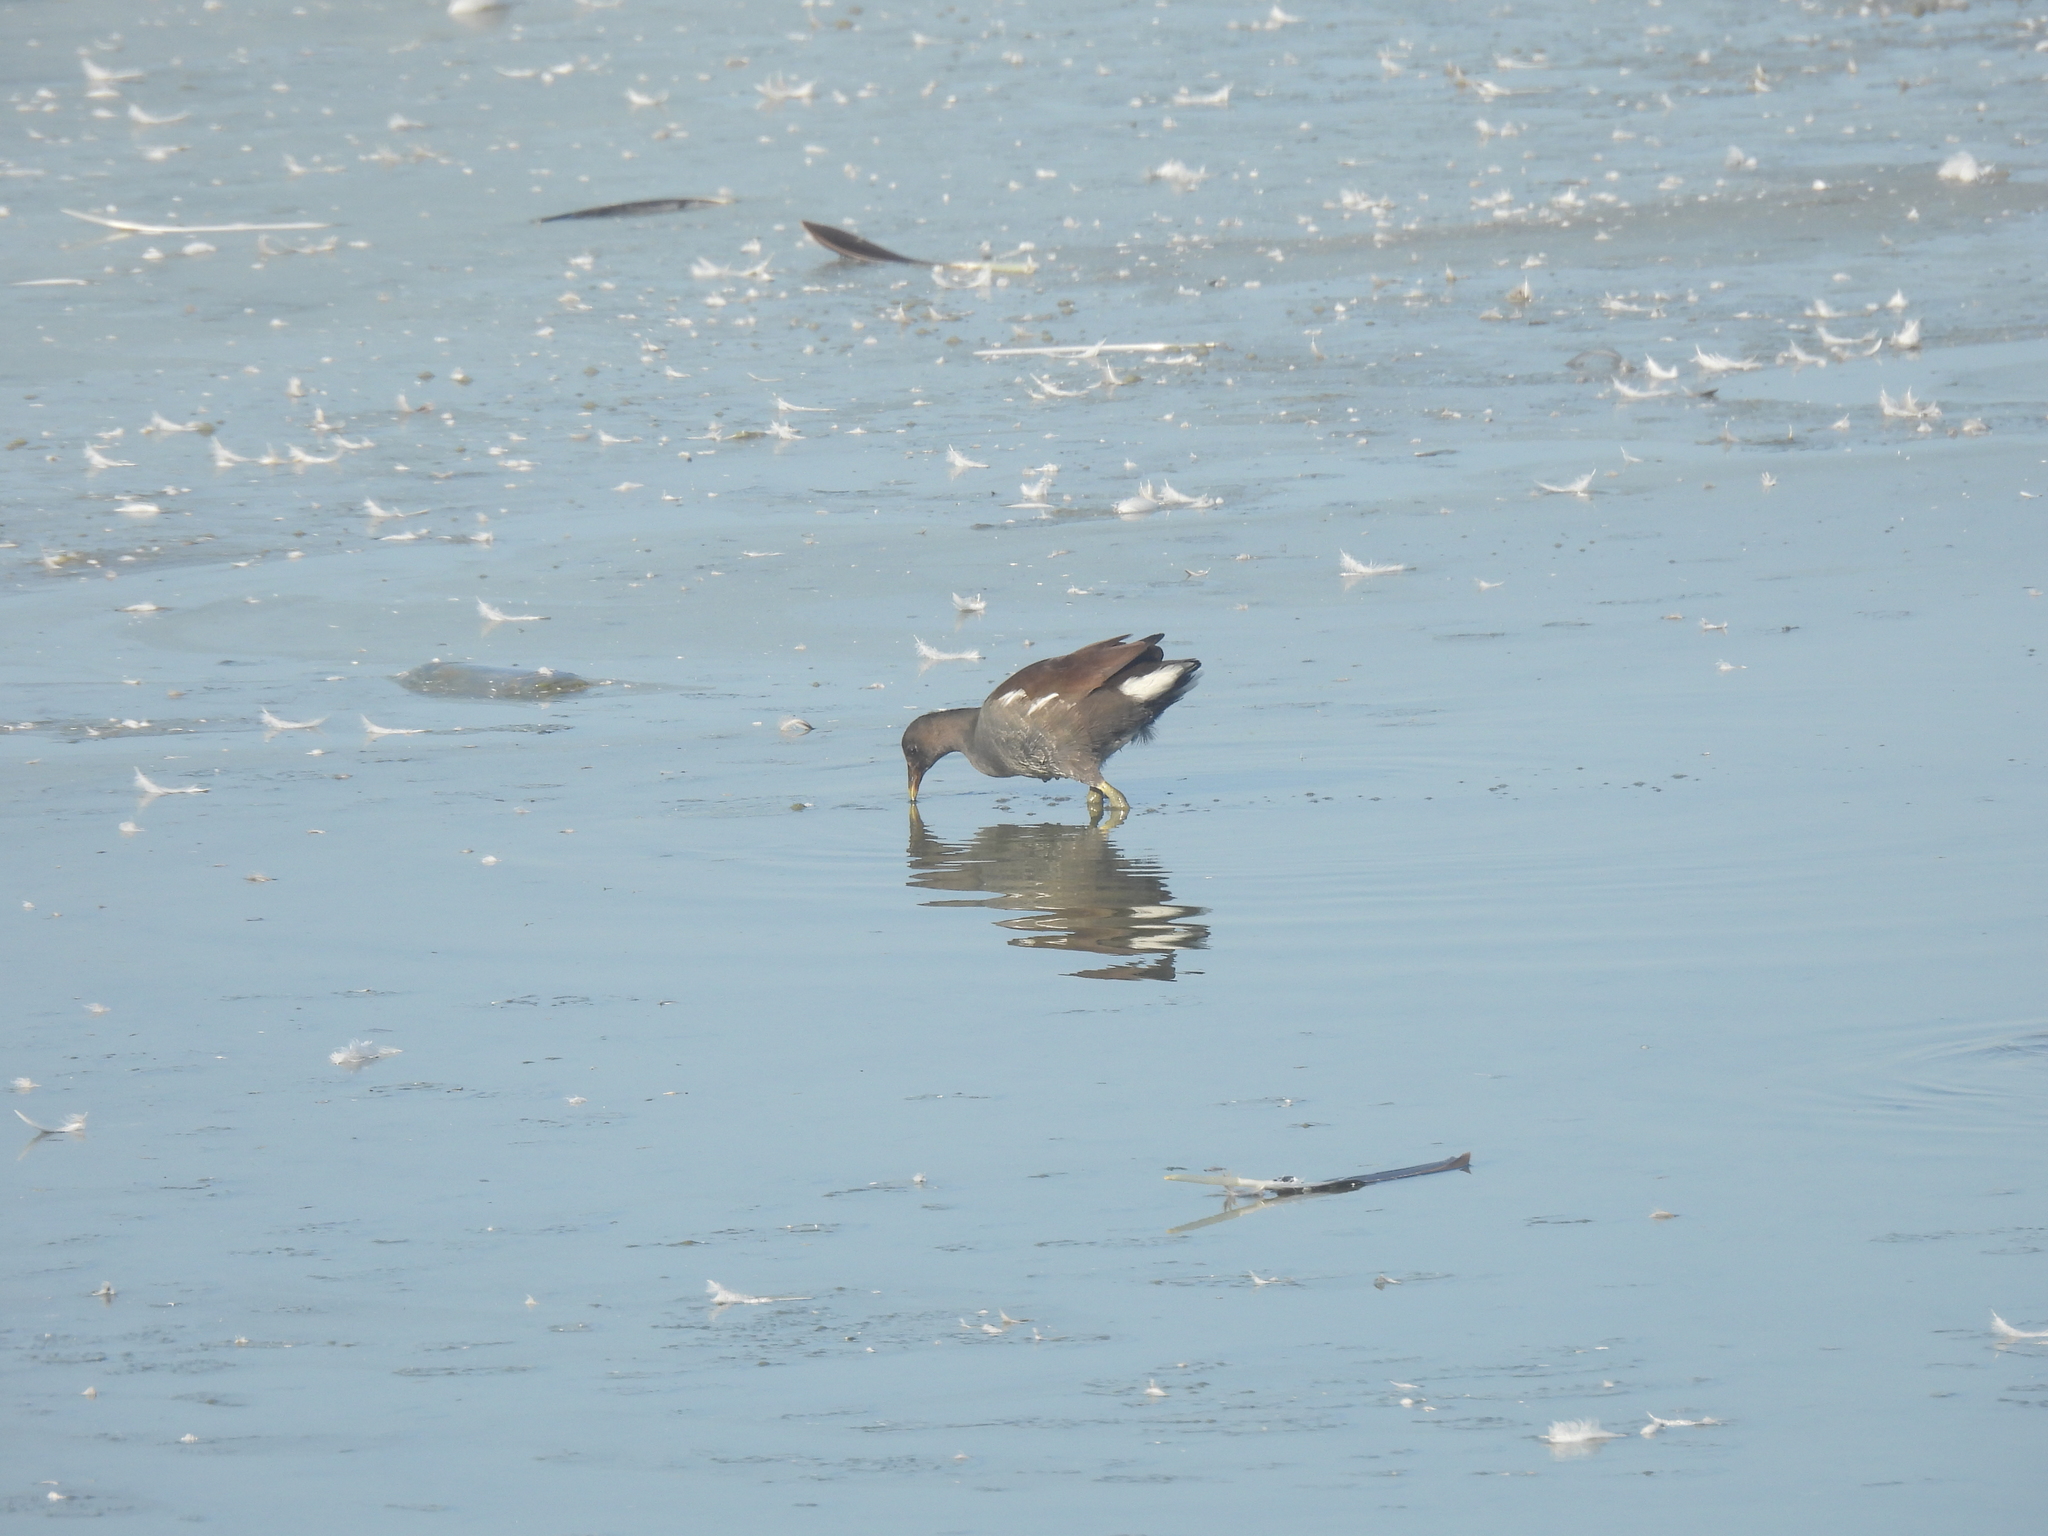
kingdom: Animalia
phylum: Chordata
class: Aves
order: Gruiformes
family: Rallidae
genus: Gallinula
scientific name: Gallinula chloropus
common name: Common moorhen
